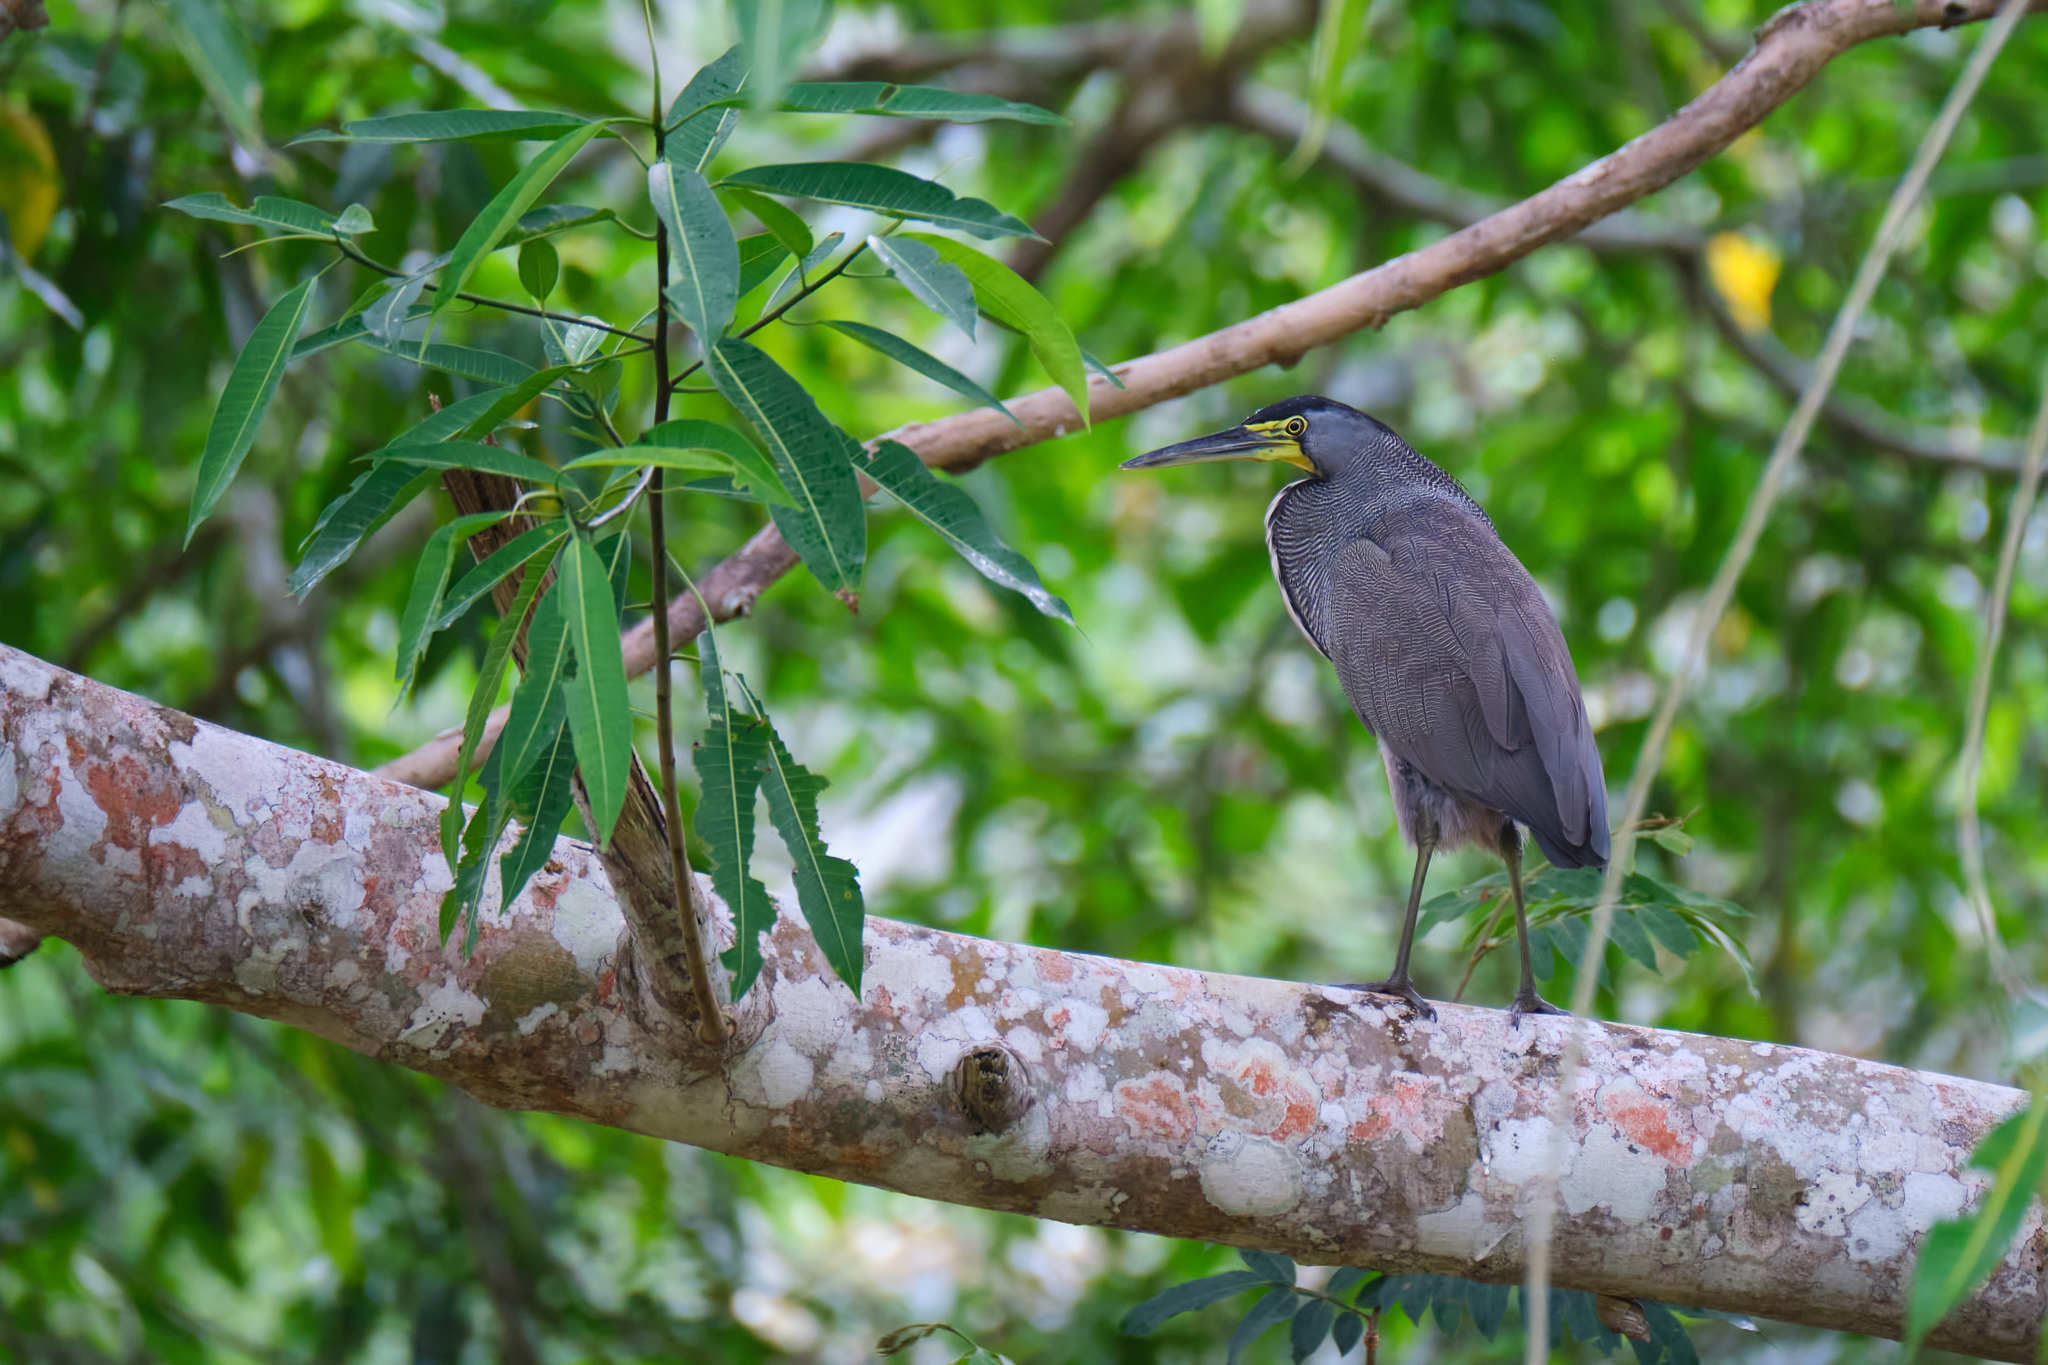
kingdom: Animalia
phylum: Chordata
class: Aves
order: Pelecaniformes
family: Ardeidae
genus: Tigrisoma
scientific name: Tigrisoma mexicanum
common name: Bare-throated tiger-heron
